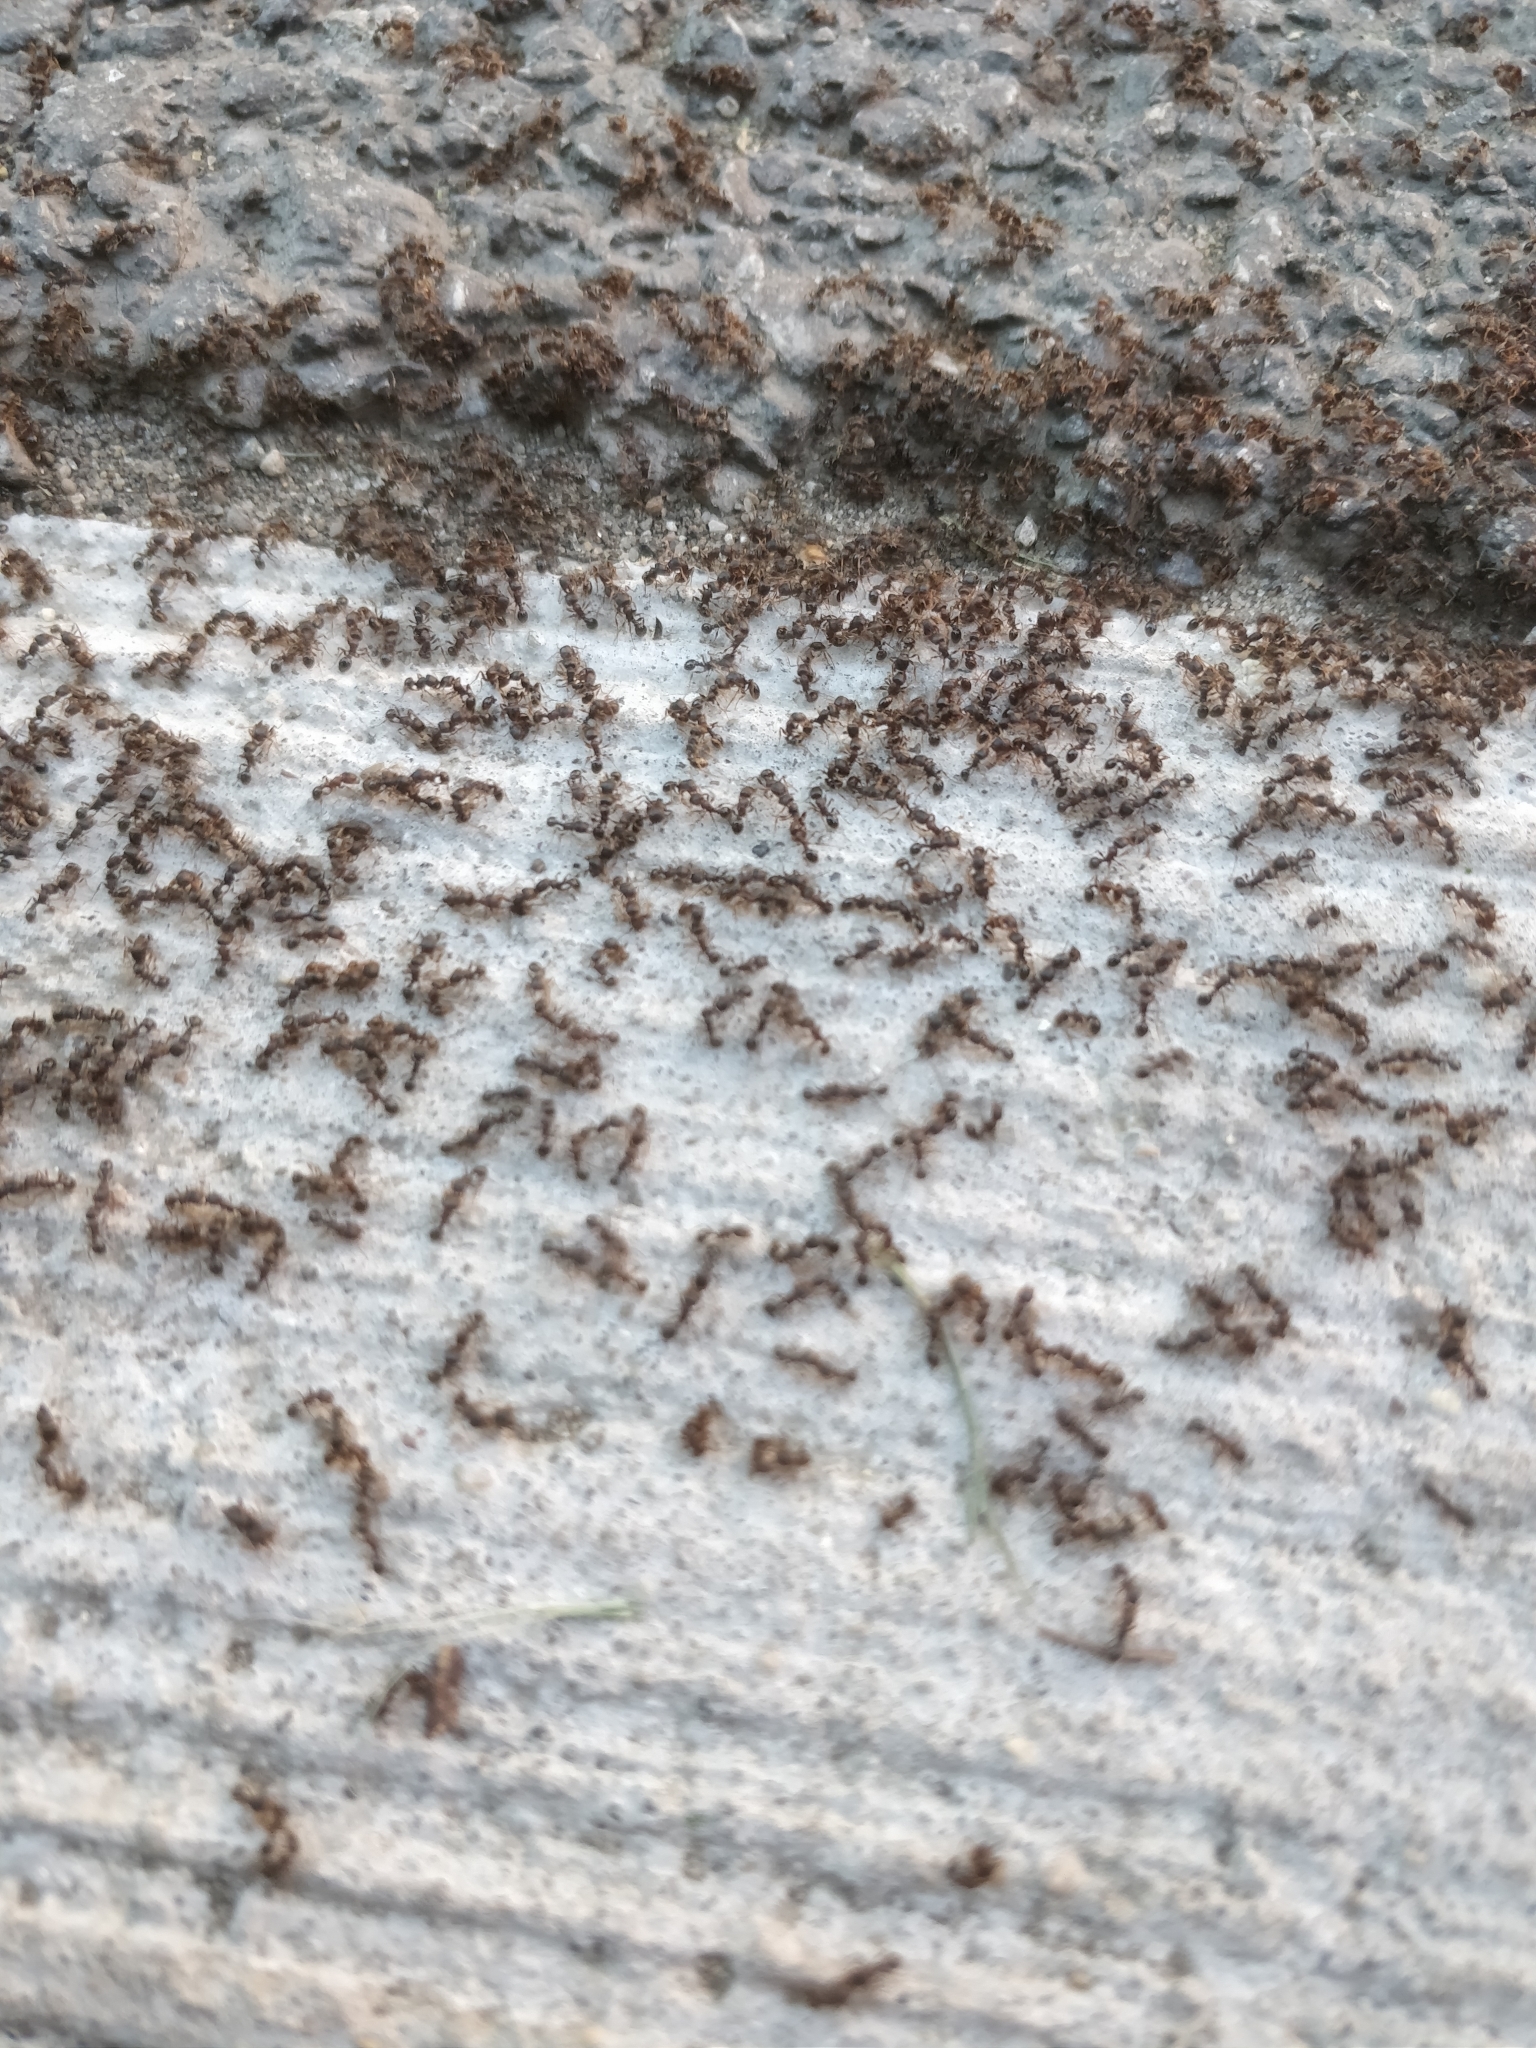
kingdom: Animalia
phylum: Arthropoda
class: Insecta
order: Hymenoptera
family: Formicidae
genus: Tetramorium
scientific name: Tetramorium immigrans
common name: Pavement ant
